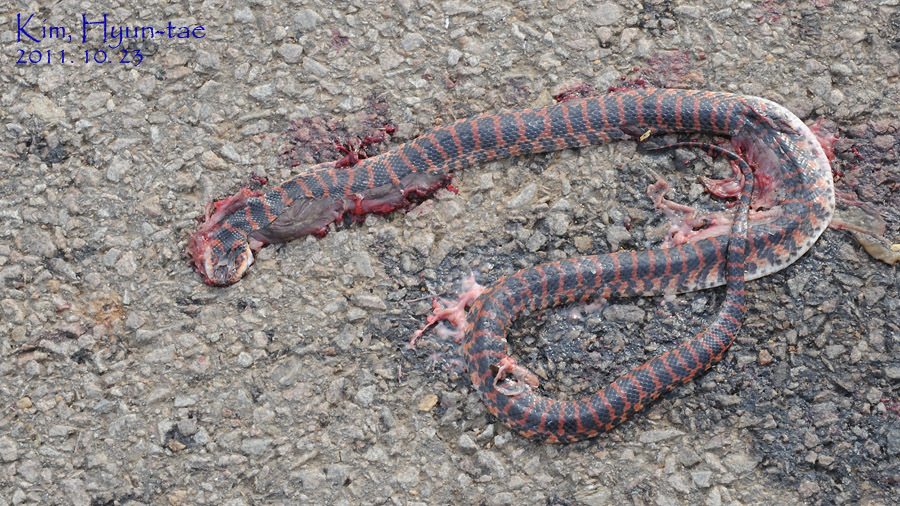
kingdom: Animalia
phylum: Chordata
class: Squamata
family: Colubridae
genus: Lycodon
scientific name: Lycodon rufozonatus
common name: Red-banded snake
